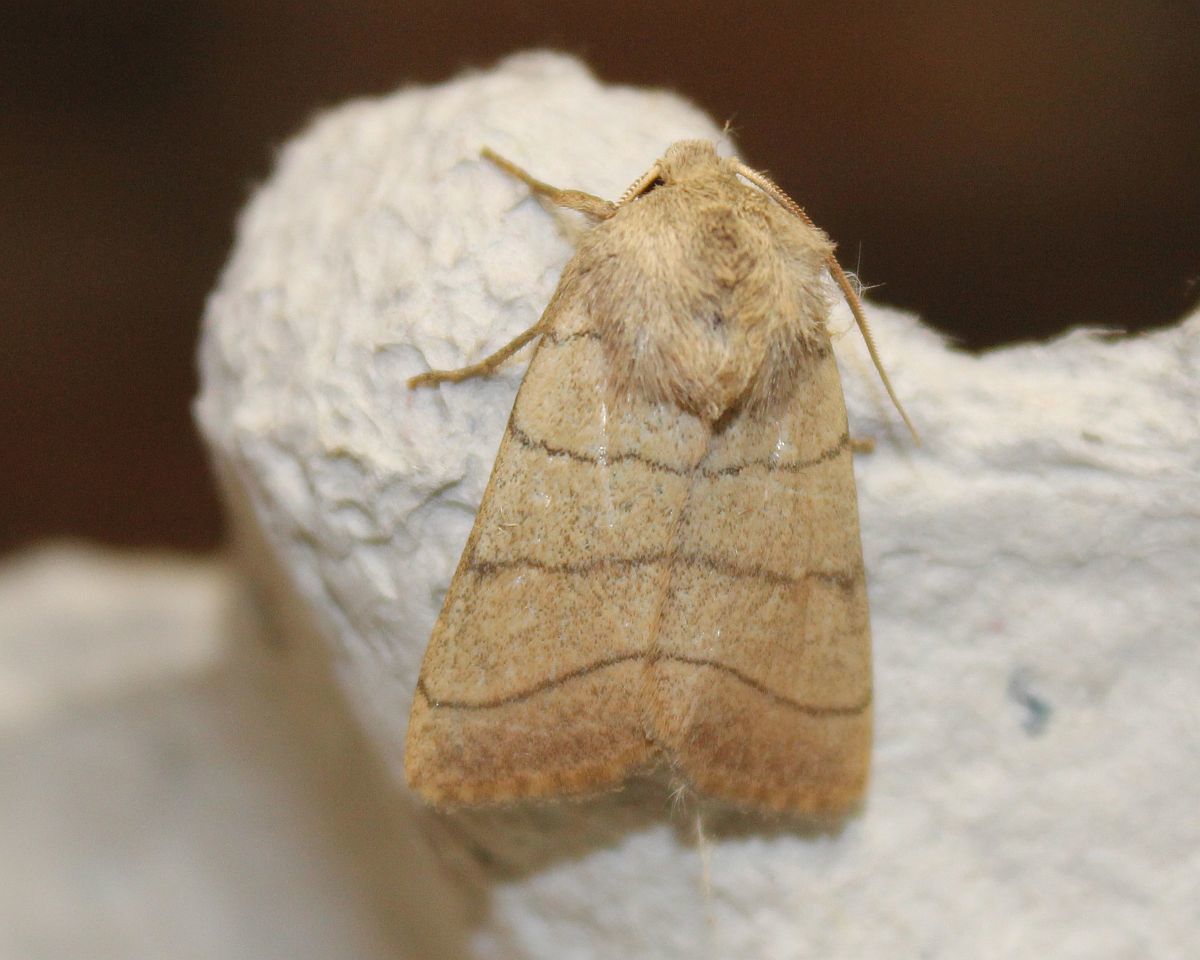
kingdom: Animalia
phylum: Arthropoda
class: Insecta
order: Lepidoptera
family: Noctuidae
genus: Charanyca
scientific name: Charanyca trigrammica
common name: Treble lines
